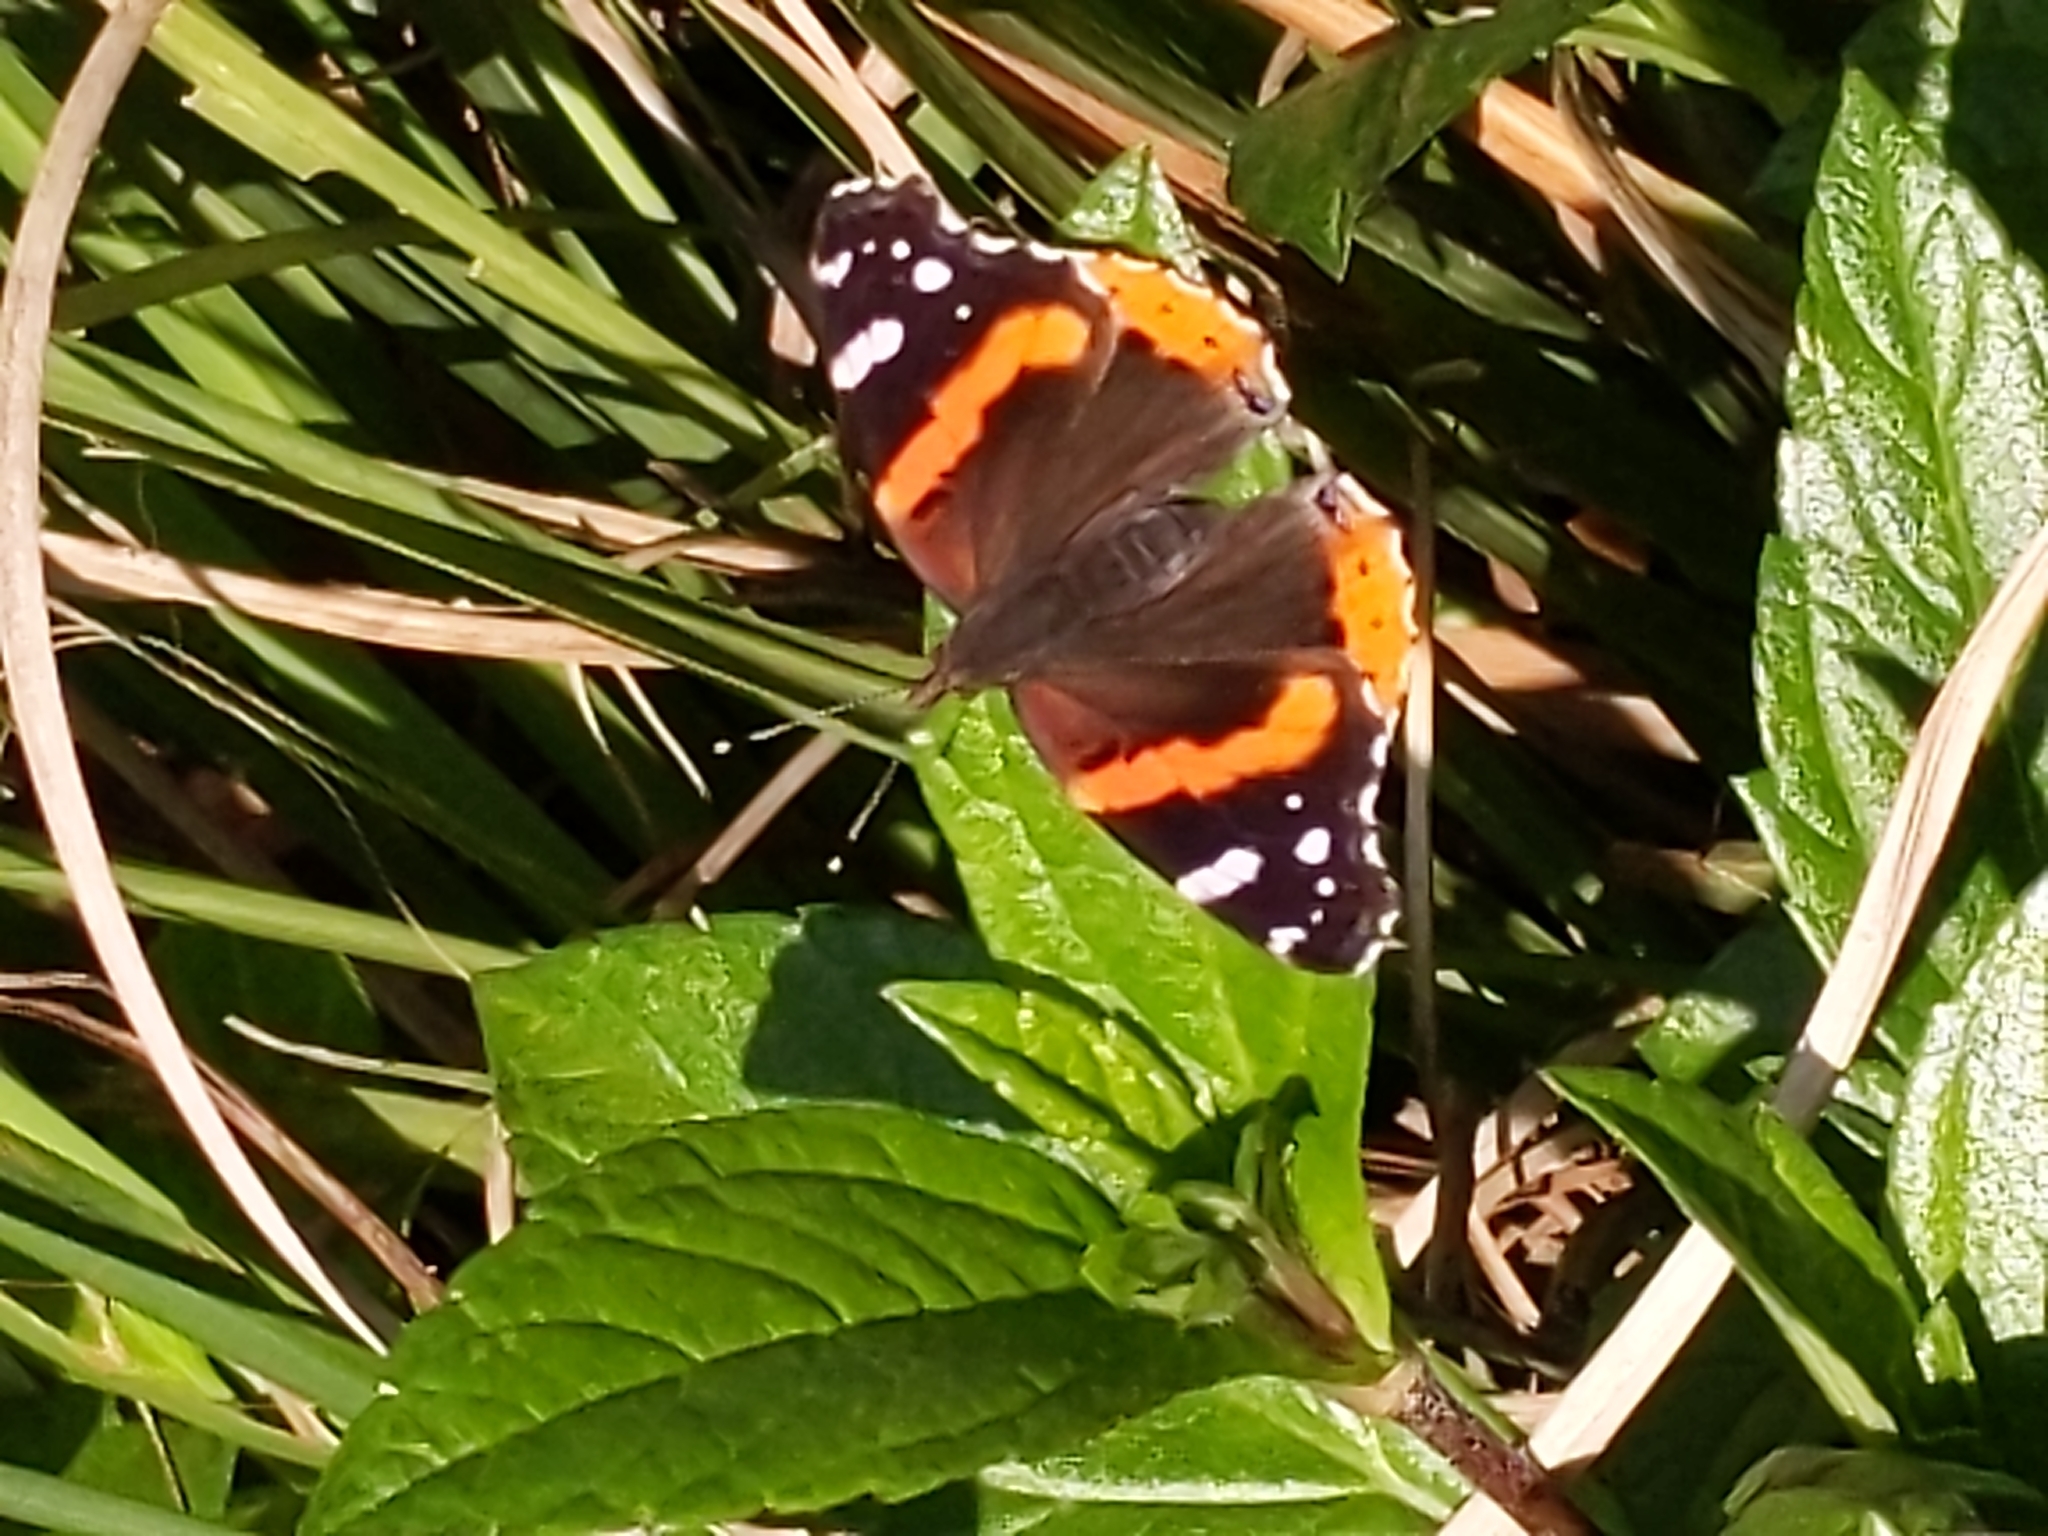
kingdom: Animalia
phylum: Arthropoda
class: Insecta
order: Lepidoptera
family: Nymphalidae
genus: Vanessa
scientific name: Vanessa atalanta
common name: Red admiral
